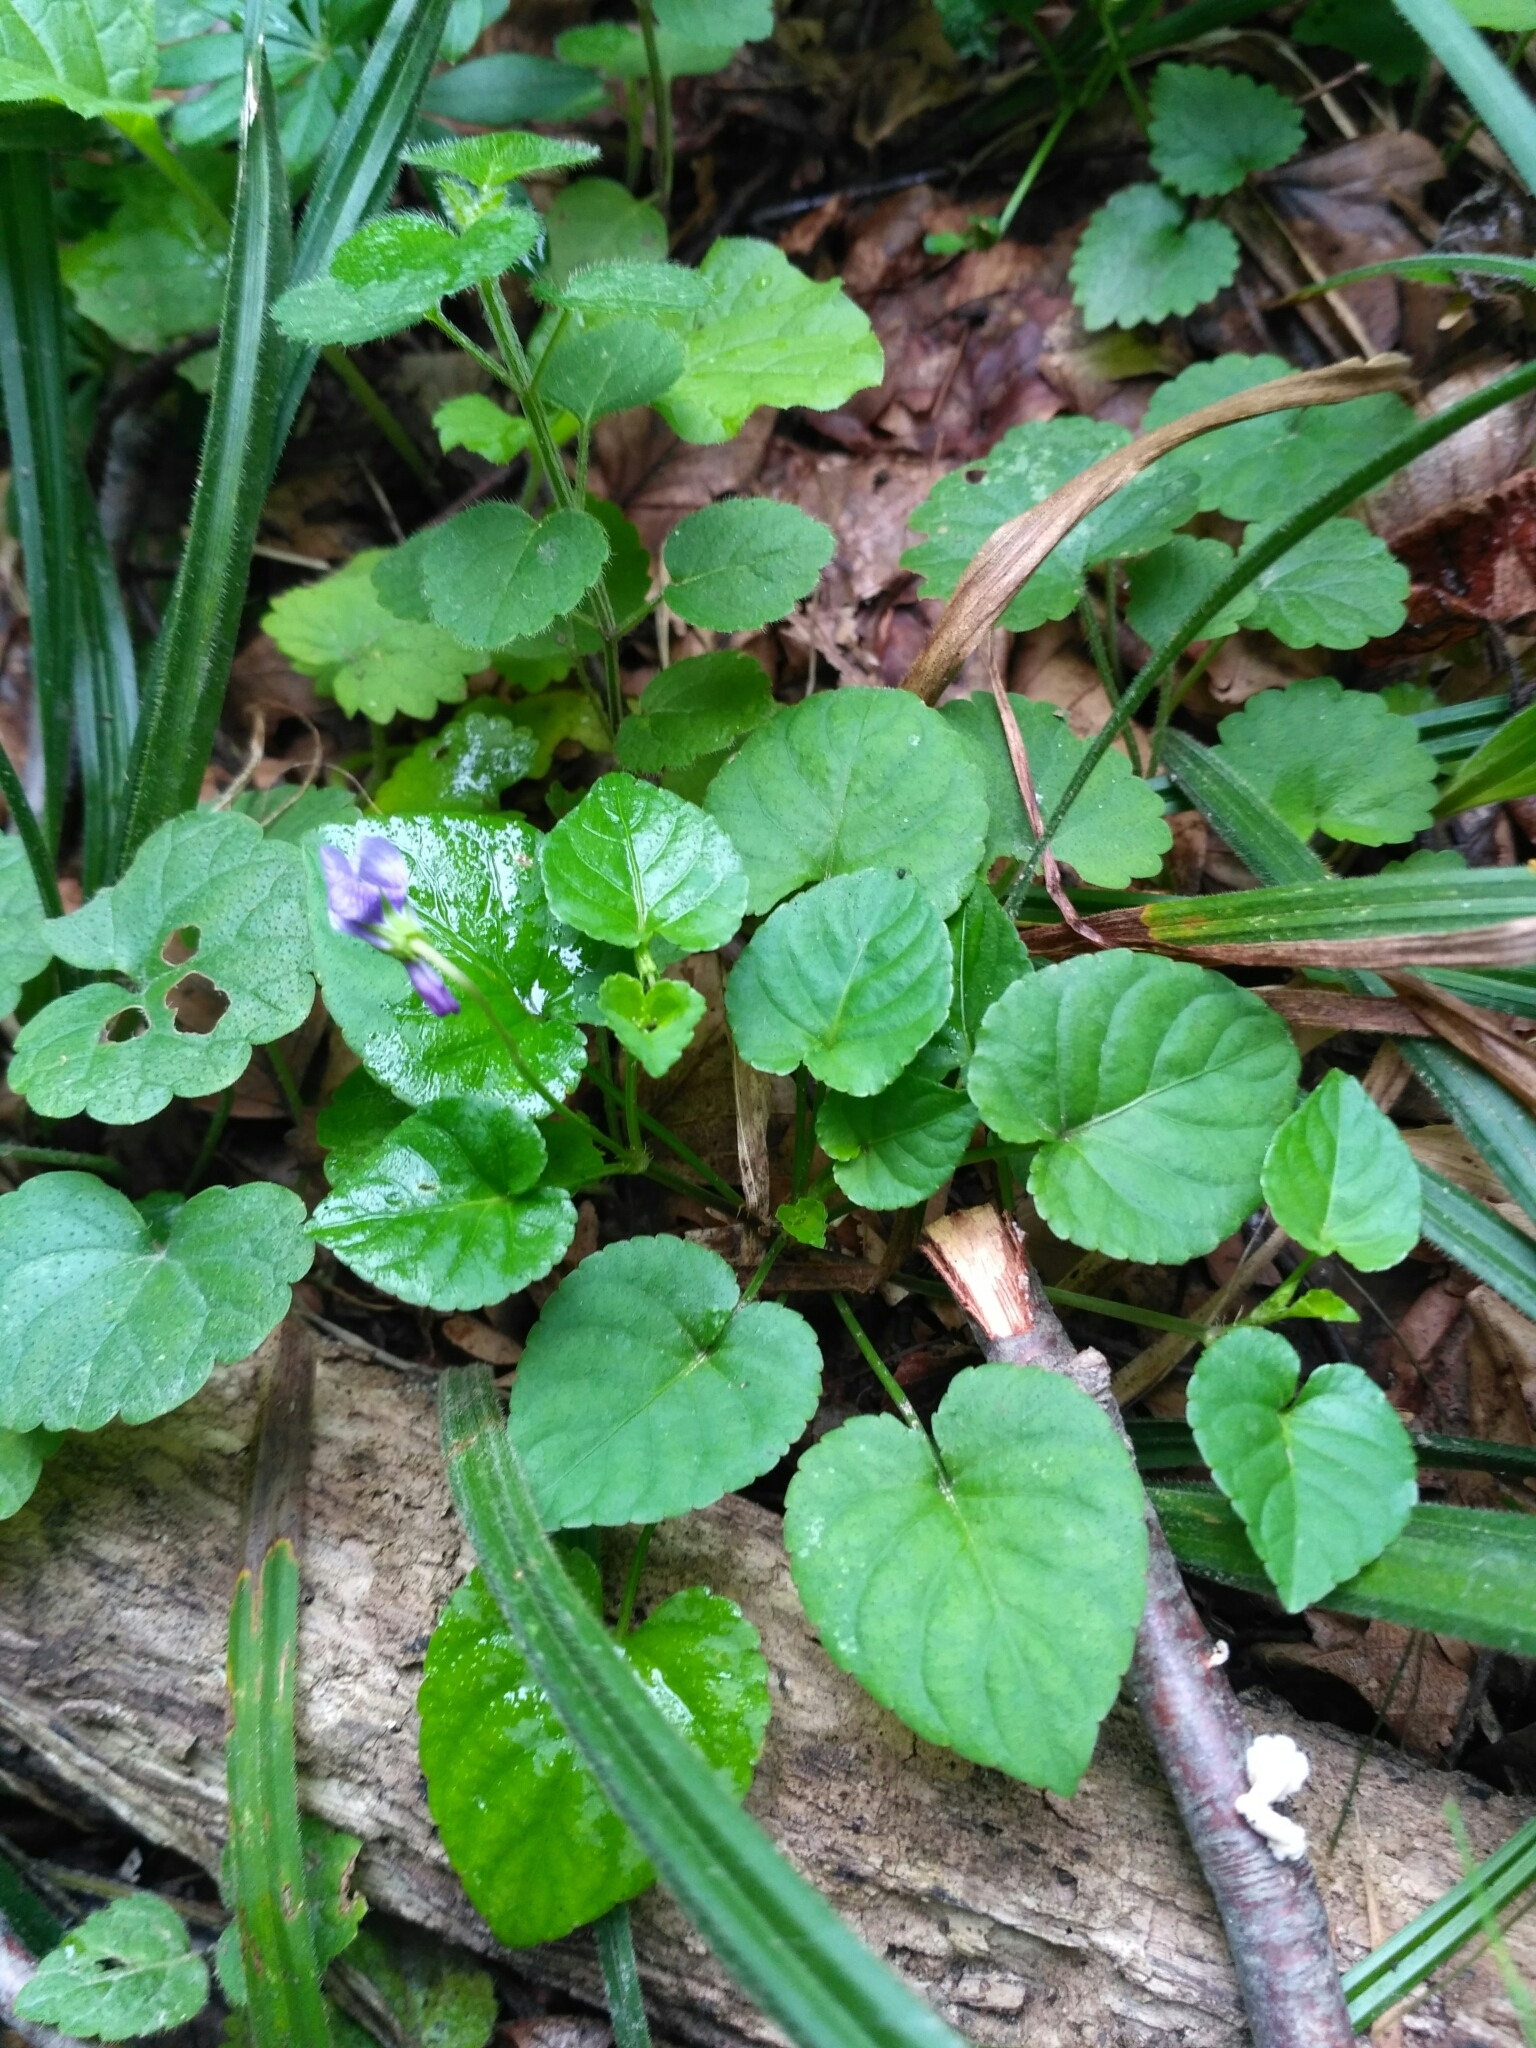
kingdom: Plantae
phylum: Tracheophyta
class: Magnoliopsida
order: Malpighiales
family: Violaceae
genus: Viola
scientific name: Viola reichenbachiana
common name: Early dog-violet
